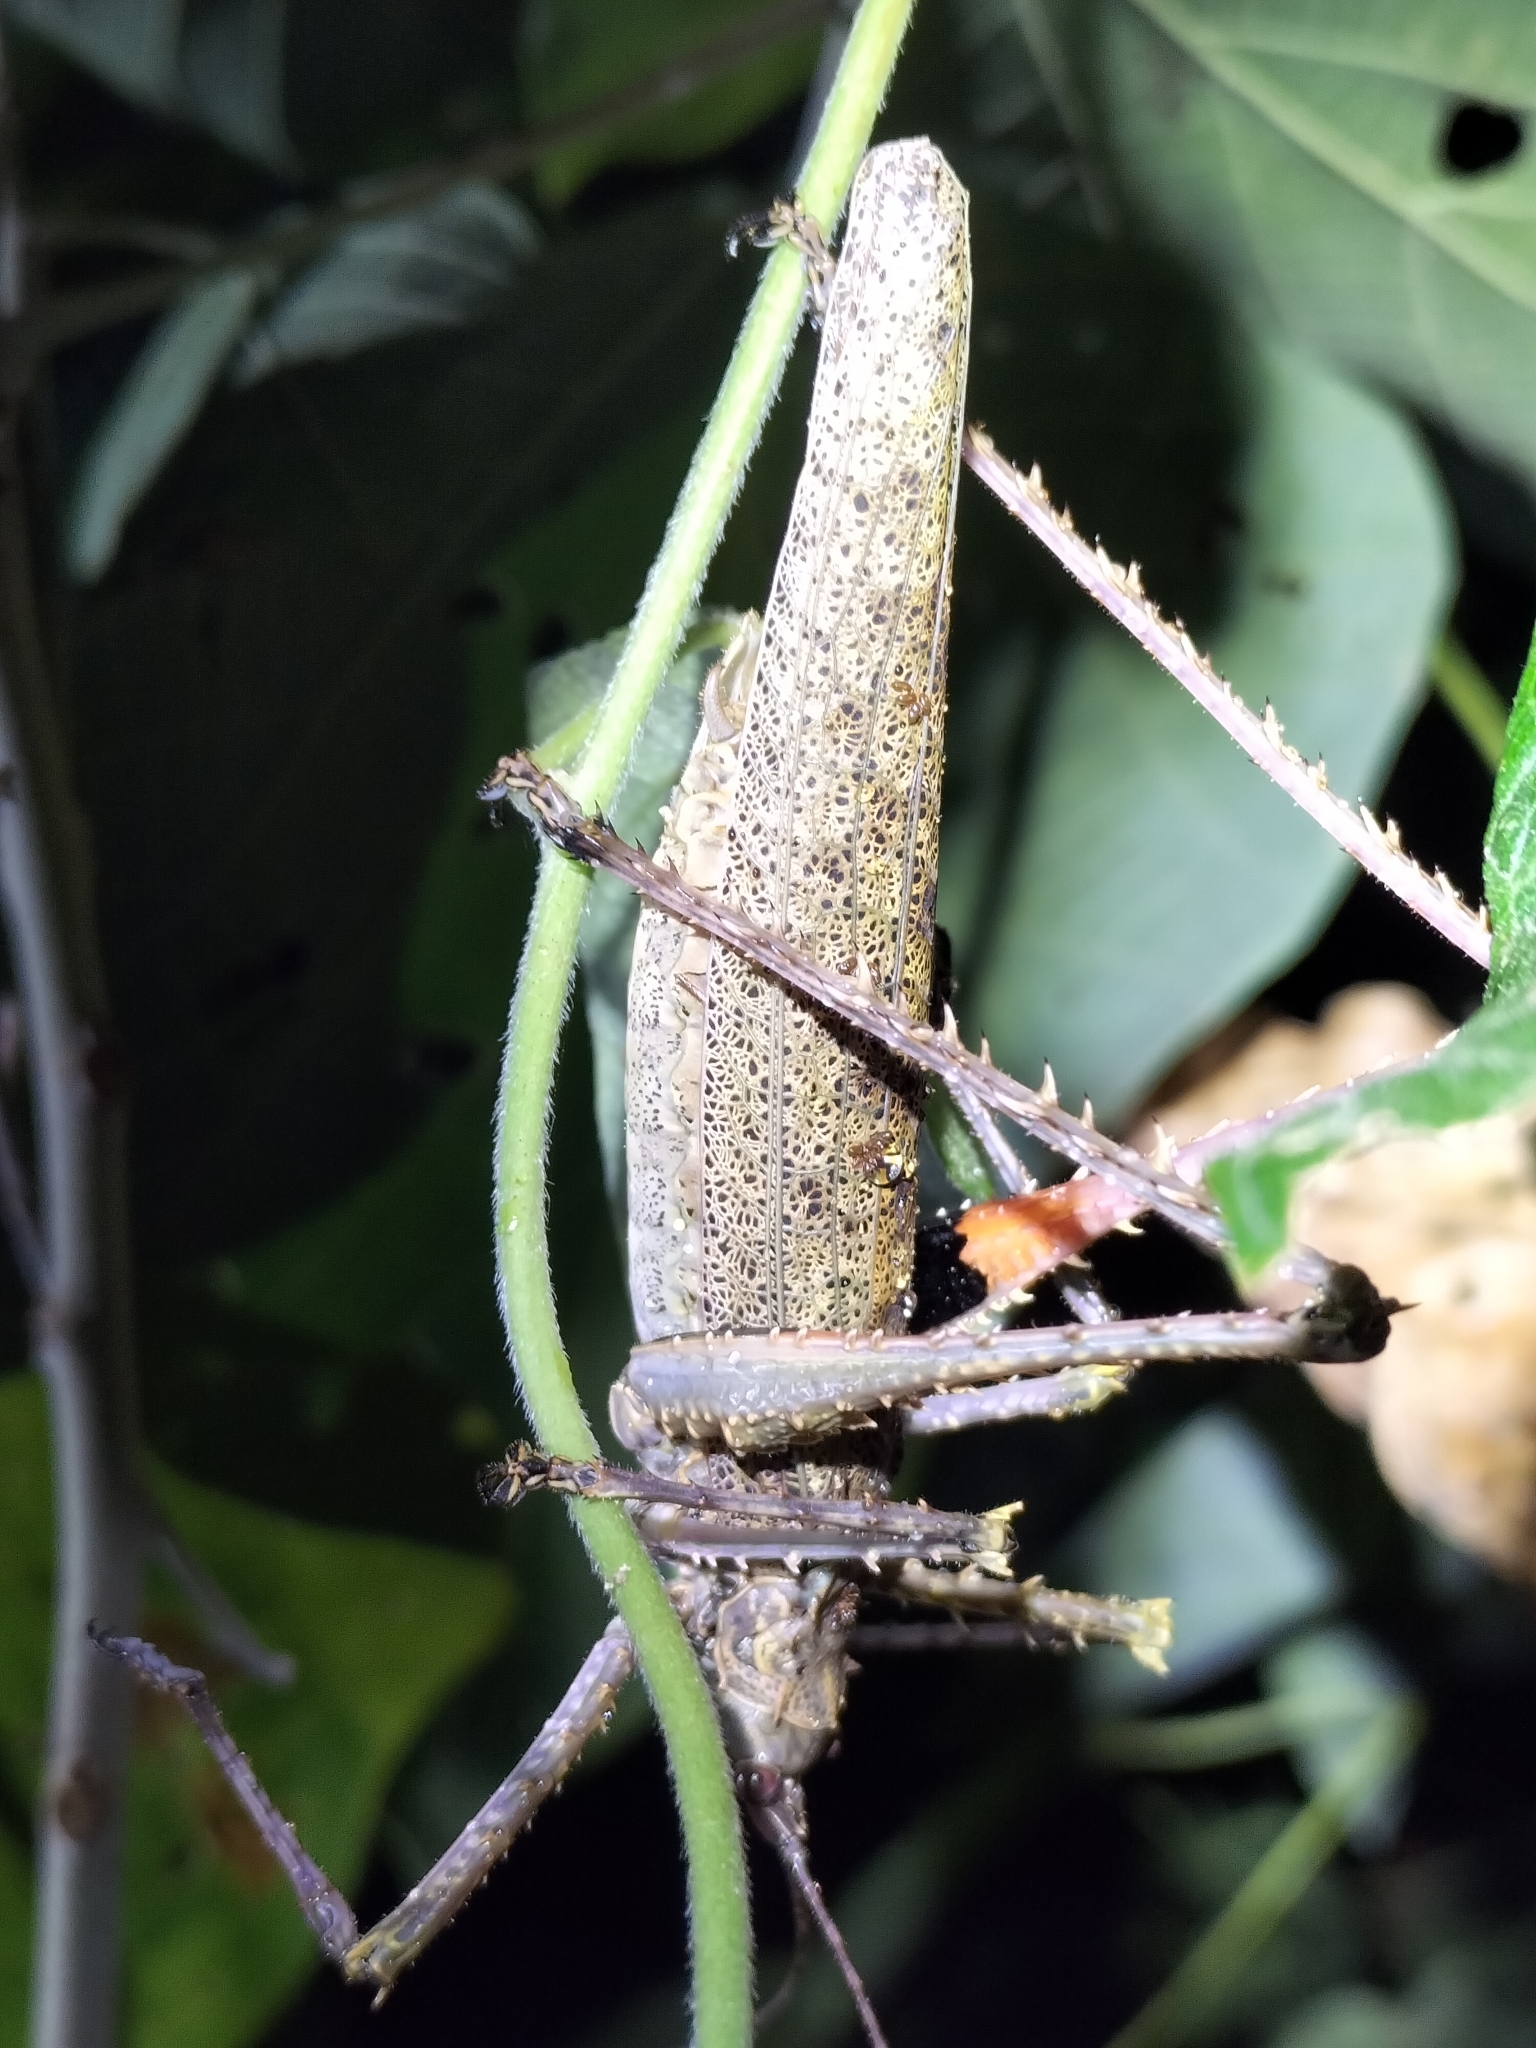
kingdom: Animalia
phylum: Arthropoda
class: Insecta
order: Orthoptera
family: Tettigoniidae
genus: Phricta
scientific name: Phricta spinosa
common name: Giant spiny forest katydid
